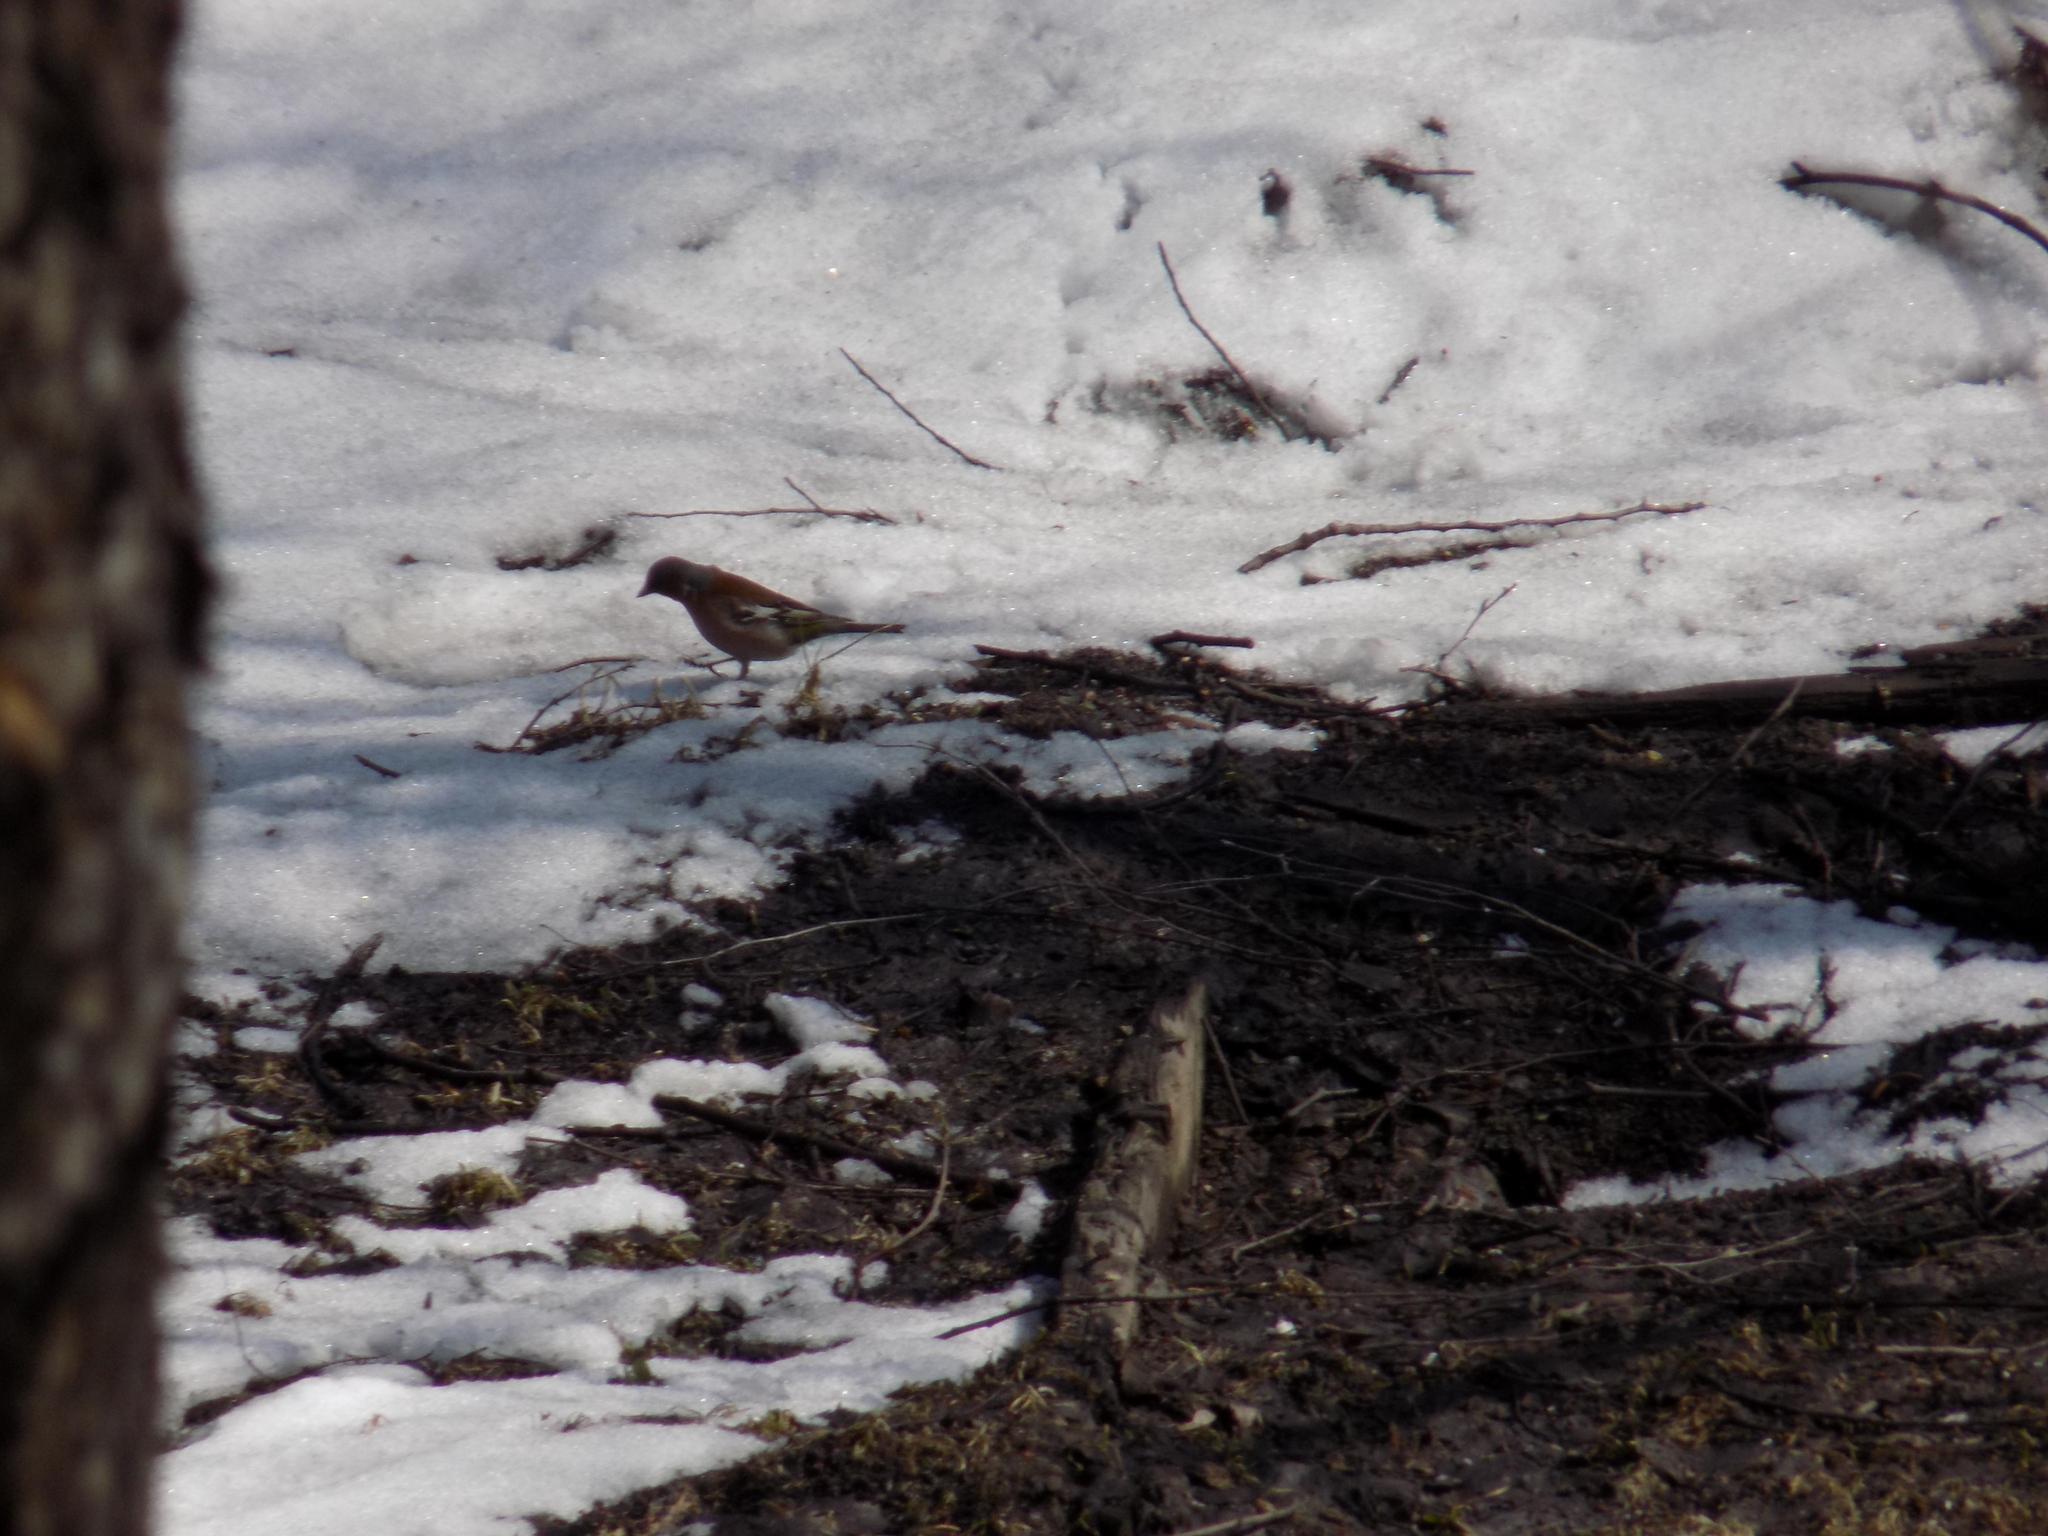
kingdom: Animalia
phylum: Chordata
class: Aves
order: Passeriformes
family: Fringillidae
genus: Fringilla
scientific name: Fringilla coelebs
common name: Common chaffinch
